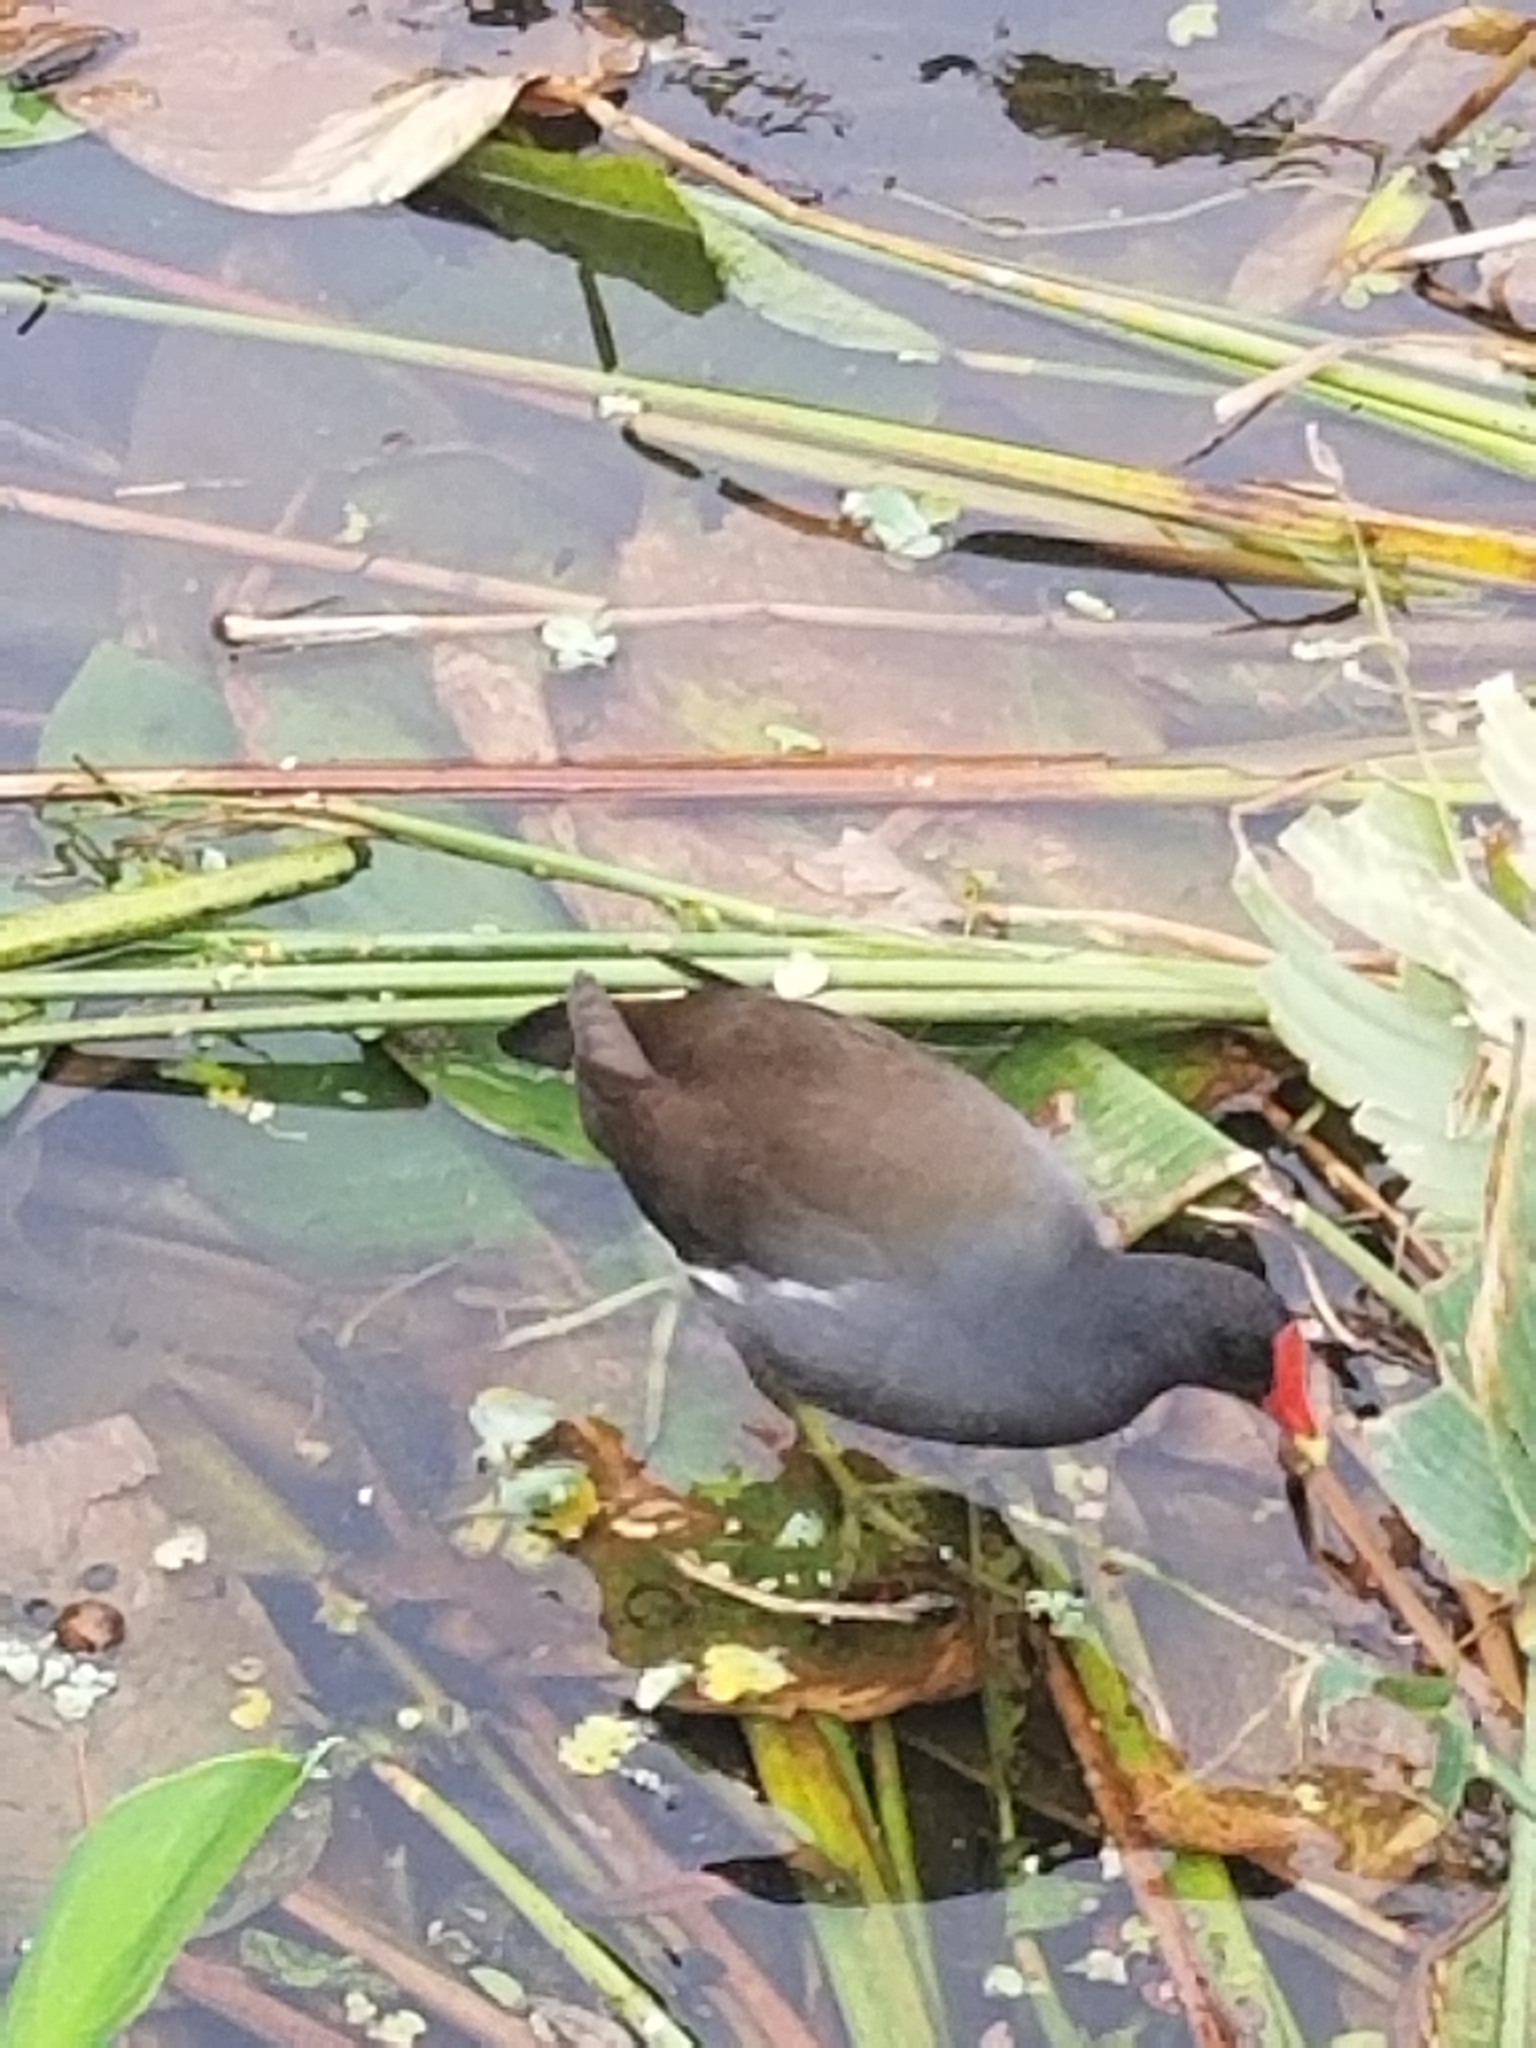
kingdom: Animalia
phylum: Chordata
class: Aves
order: Gruiformes
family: Rallidae
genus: Gallinula
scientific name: Gallinula chloropus
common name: Common moorhen
